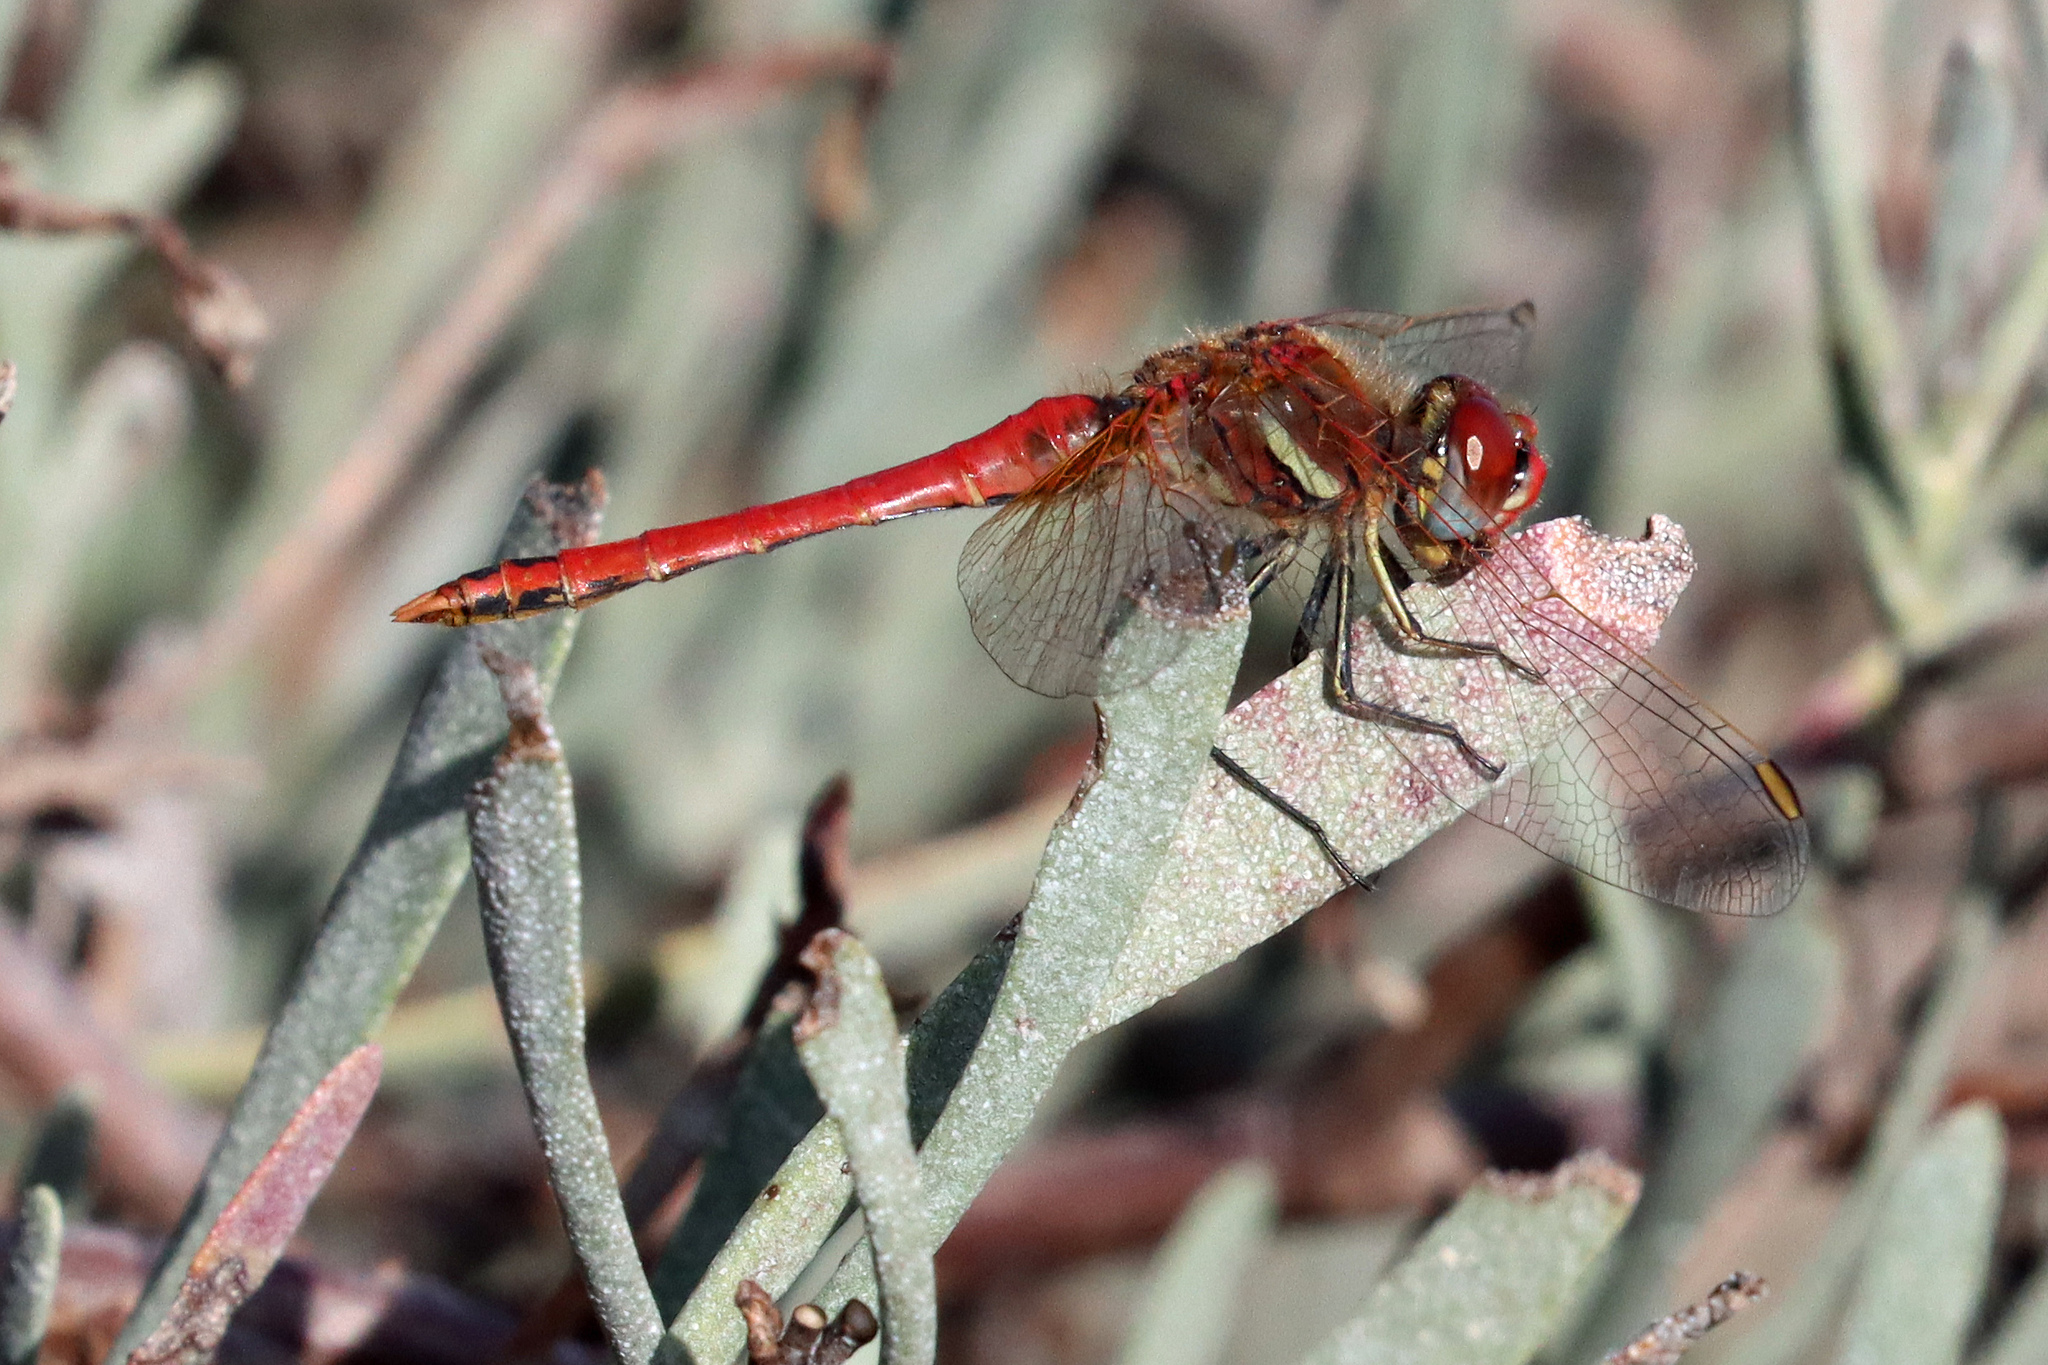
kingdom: Animalia
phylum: Arthropoda
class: Insecta
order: Odonata
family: Libellulidae
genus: Sympetrum
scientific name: Sympetrum fonscolombii
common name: Red-veined darter
